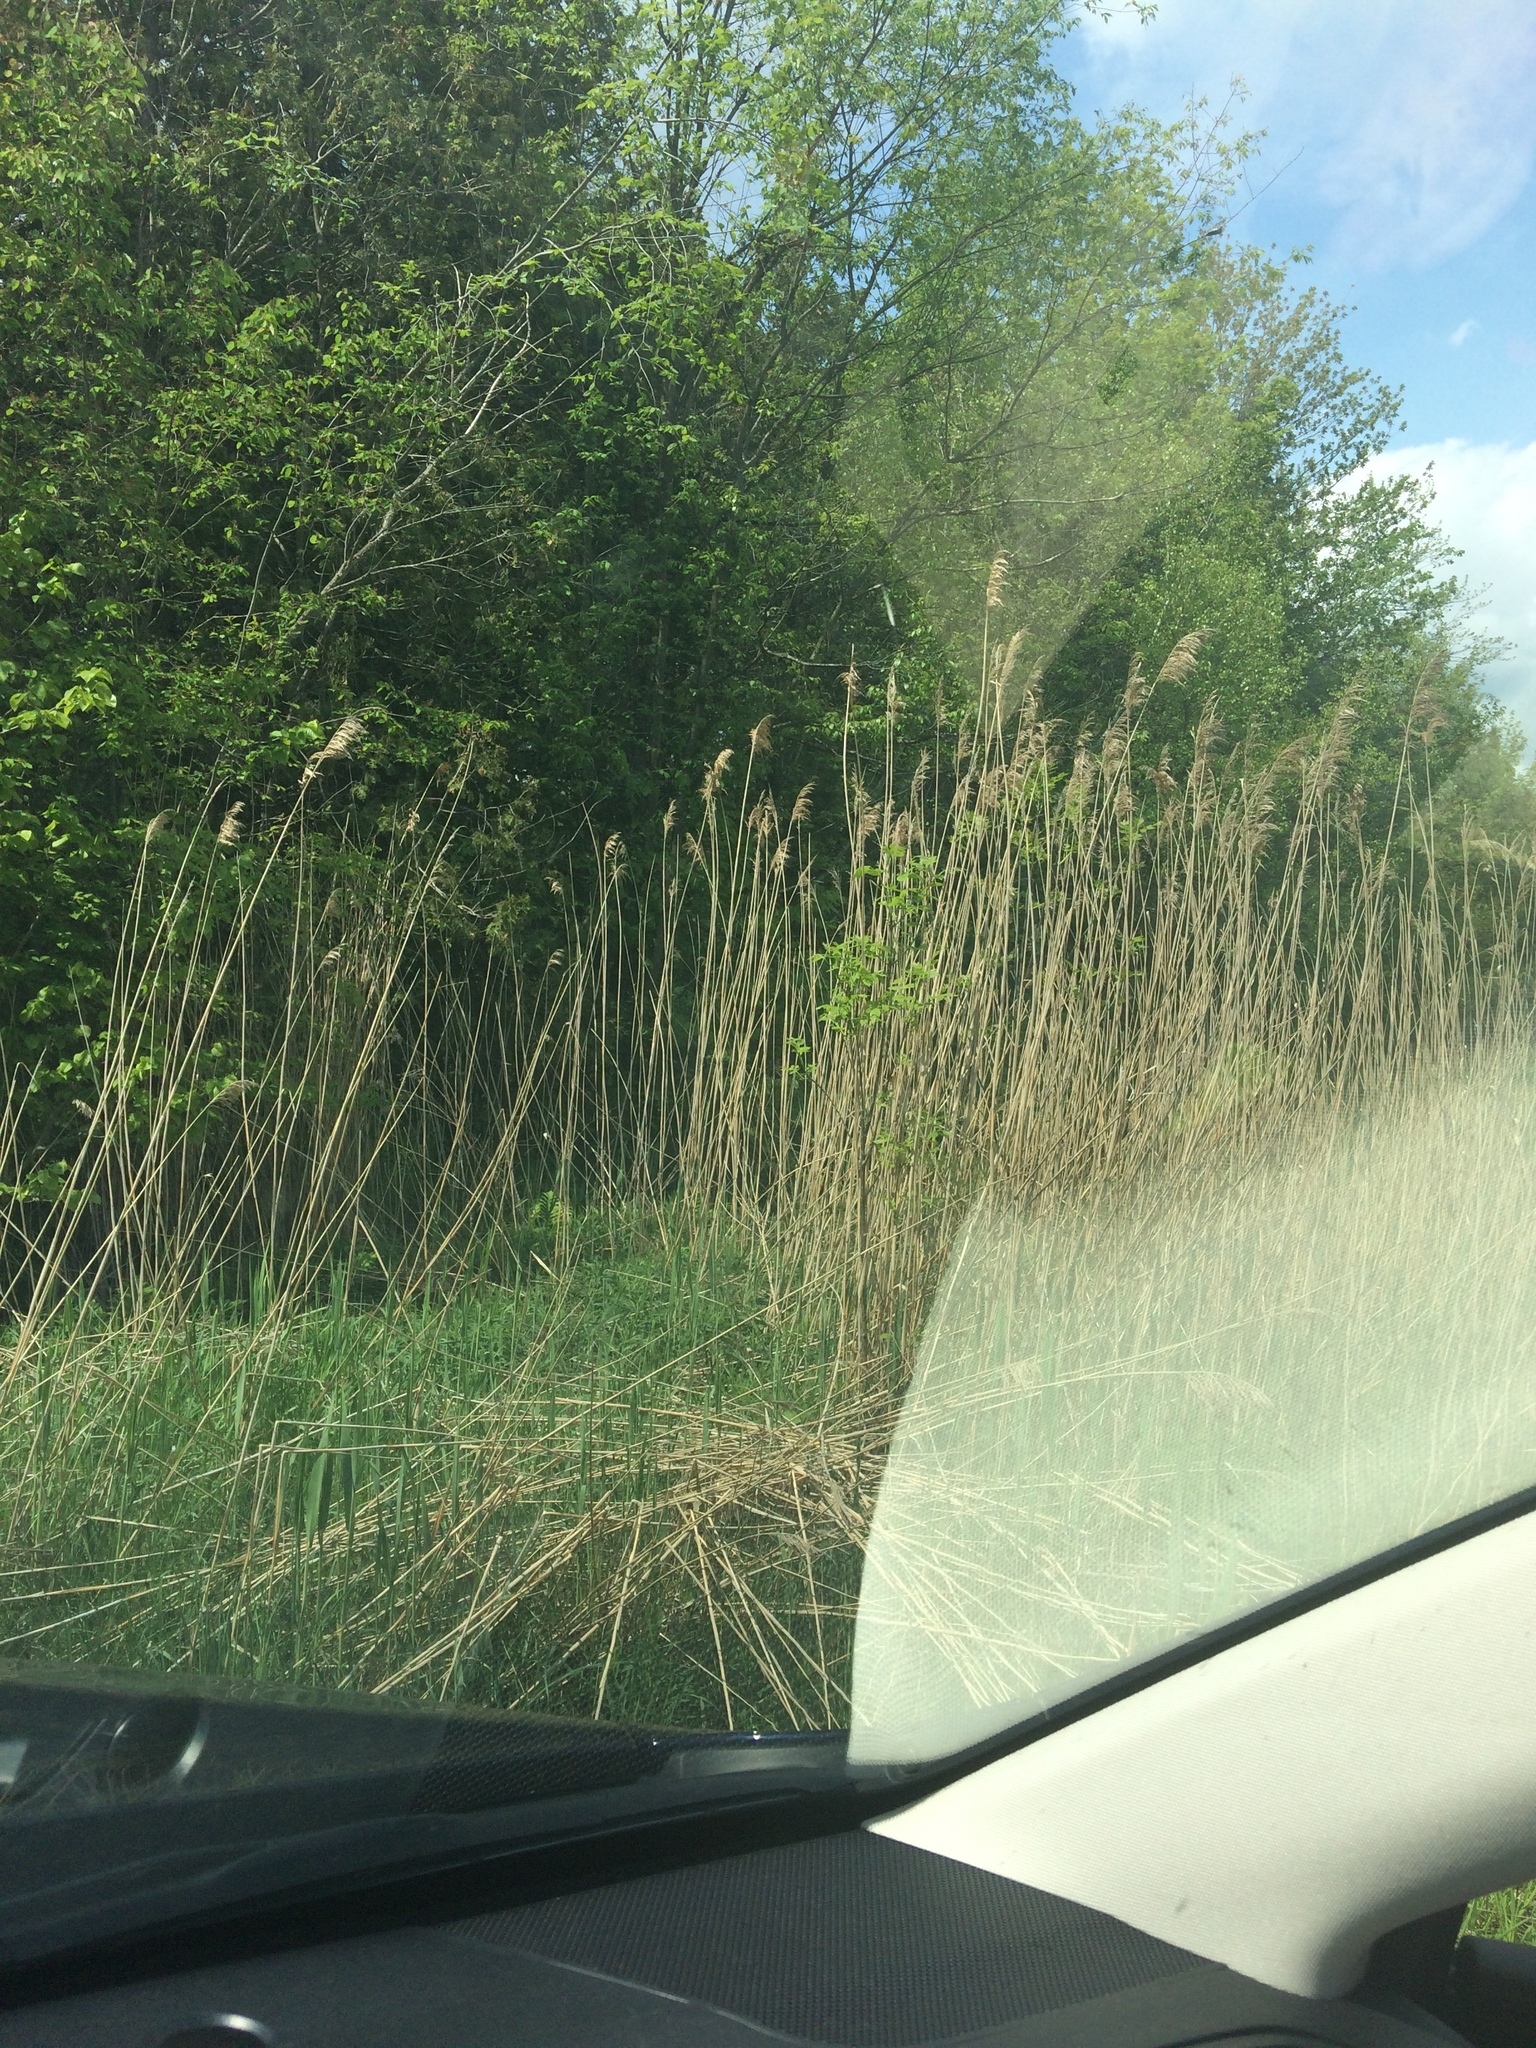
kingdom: Plantae
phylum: Tracheophyta
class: Liliopsida
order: Poales
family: Poaceae
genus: Phragmites
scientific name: Phragmites australis
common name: Common reed
